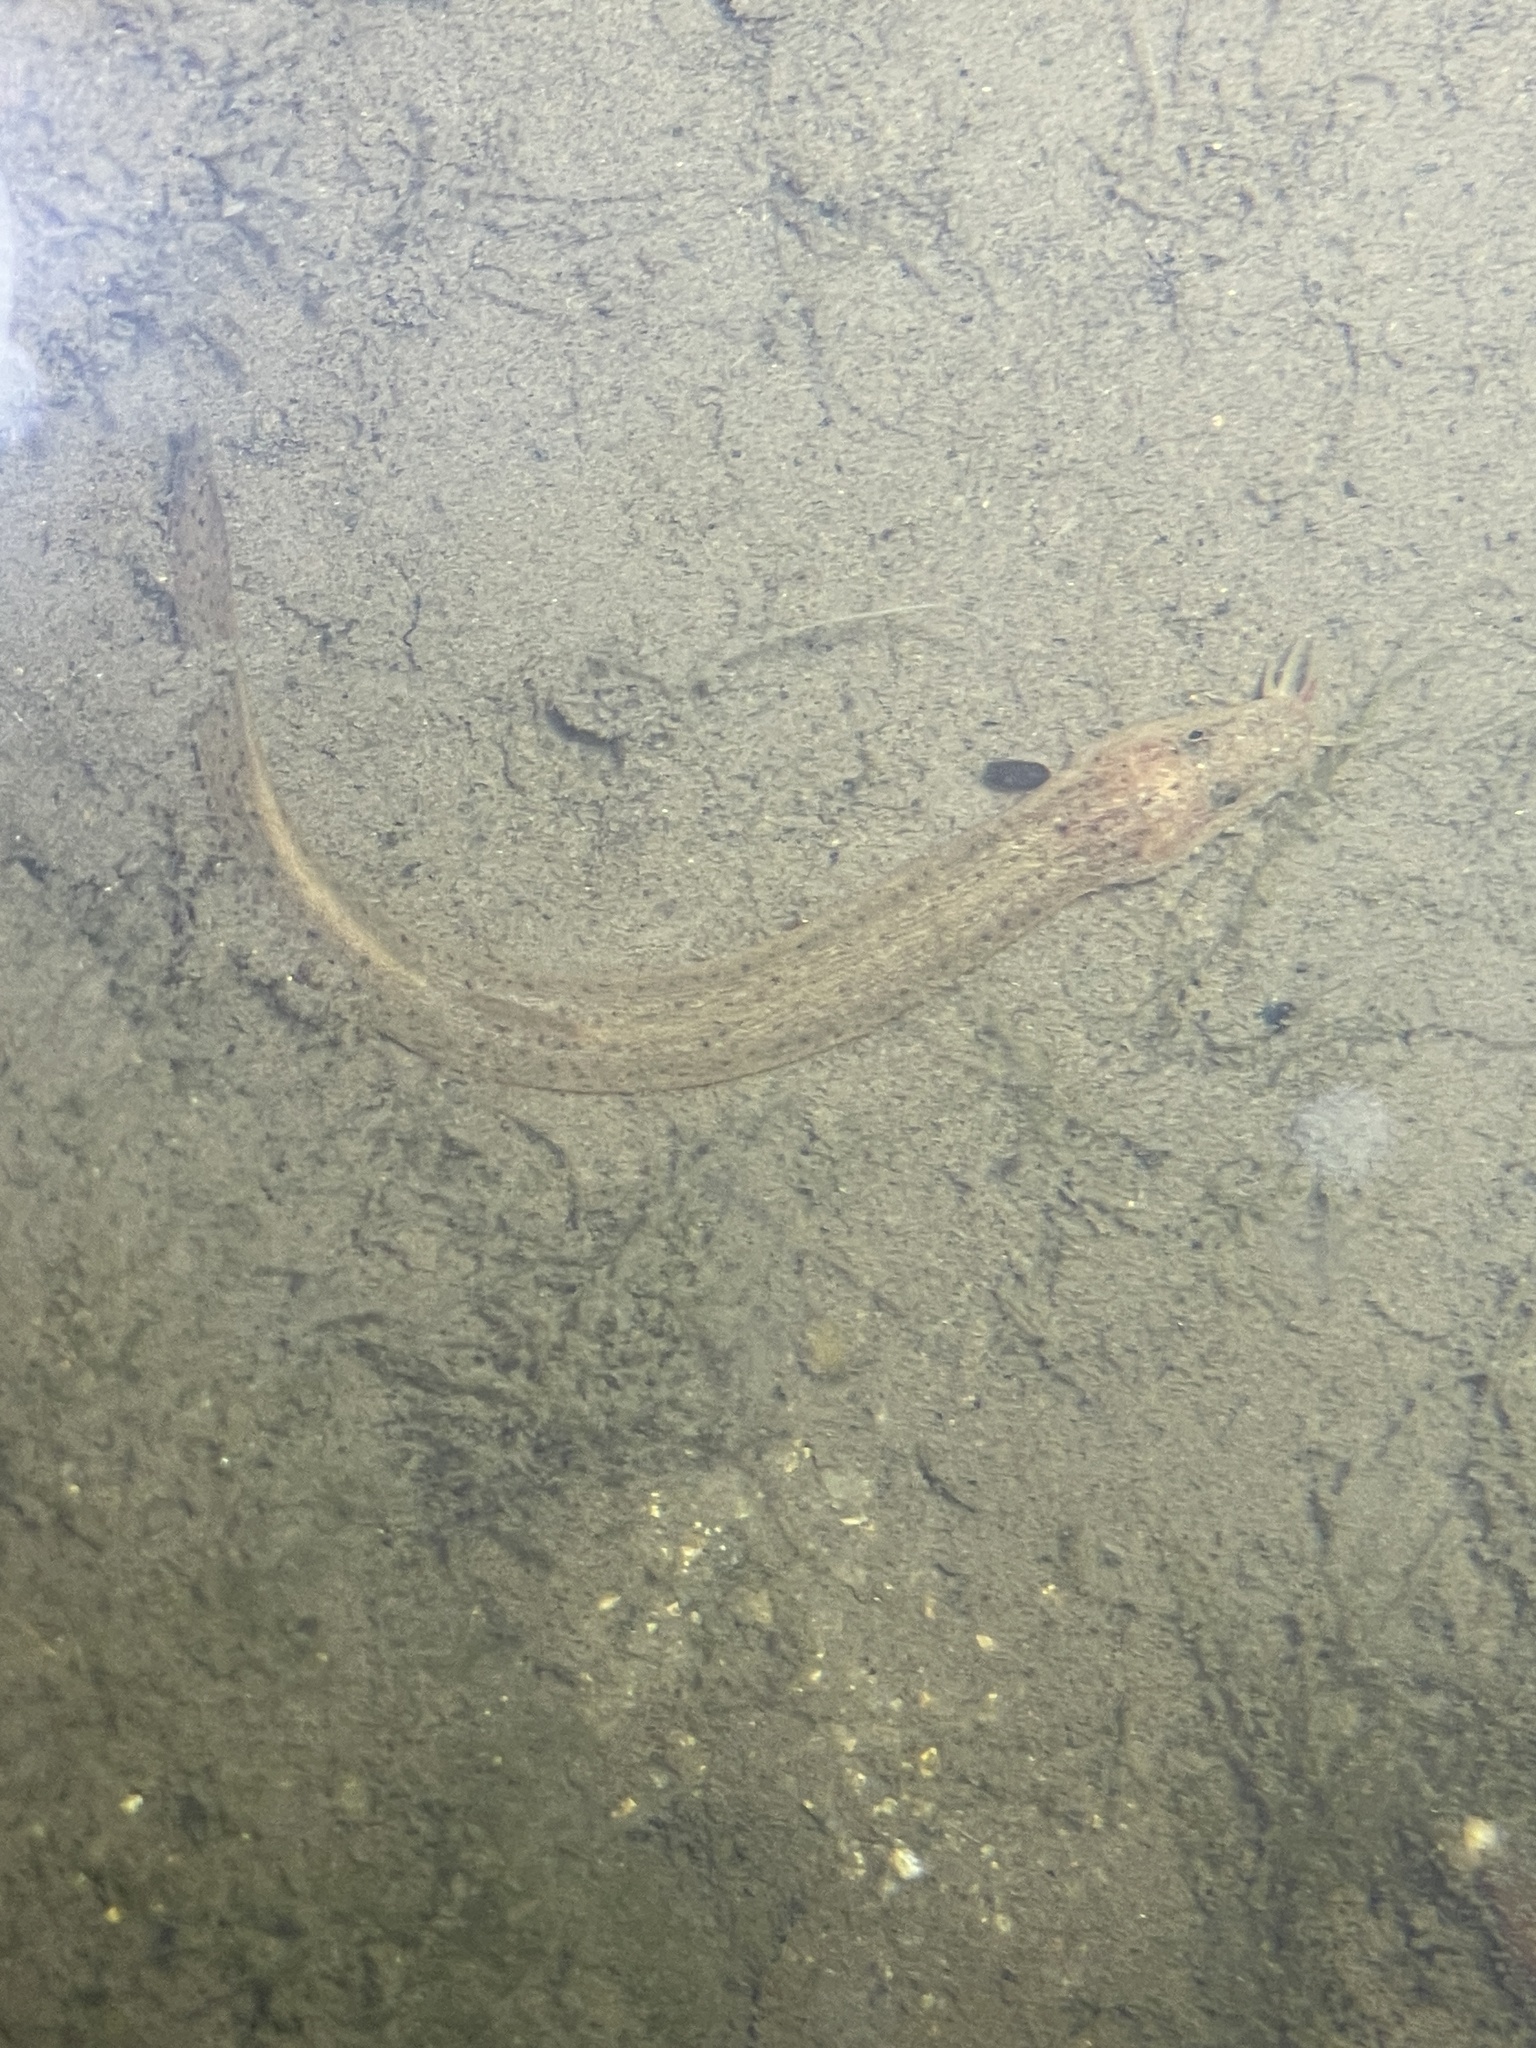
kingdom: Animalia
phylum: Chordata
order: Cypriniformes
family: Cobitidae
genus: Misgurnus
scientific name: Misgurnus anguillicaudatus
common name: Oriental weatherfish
